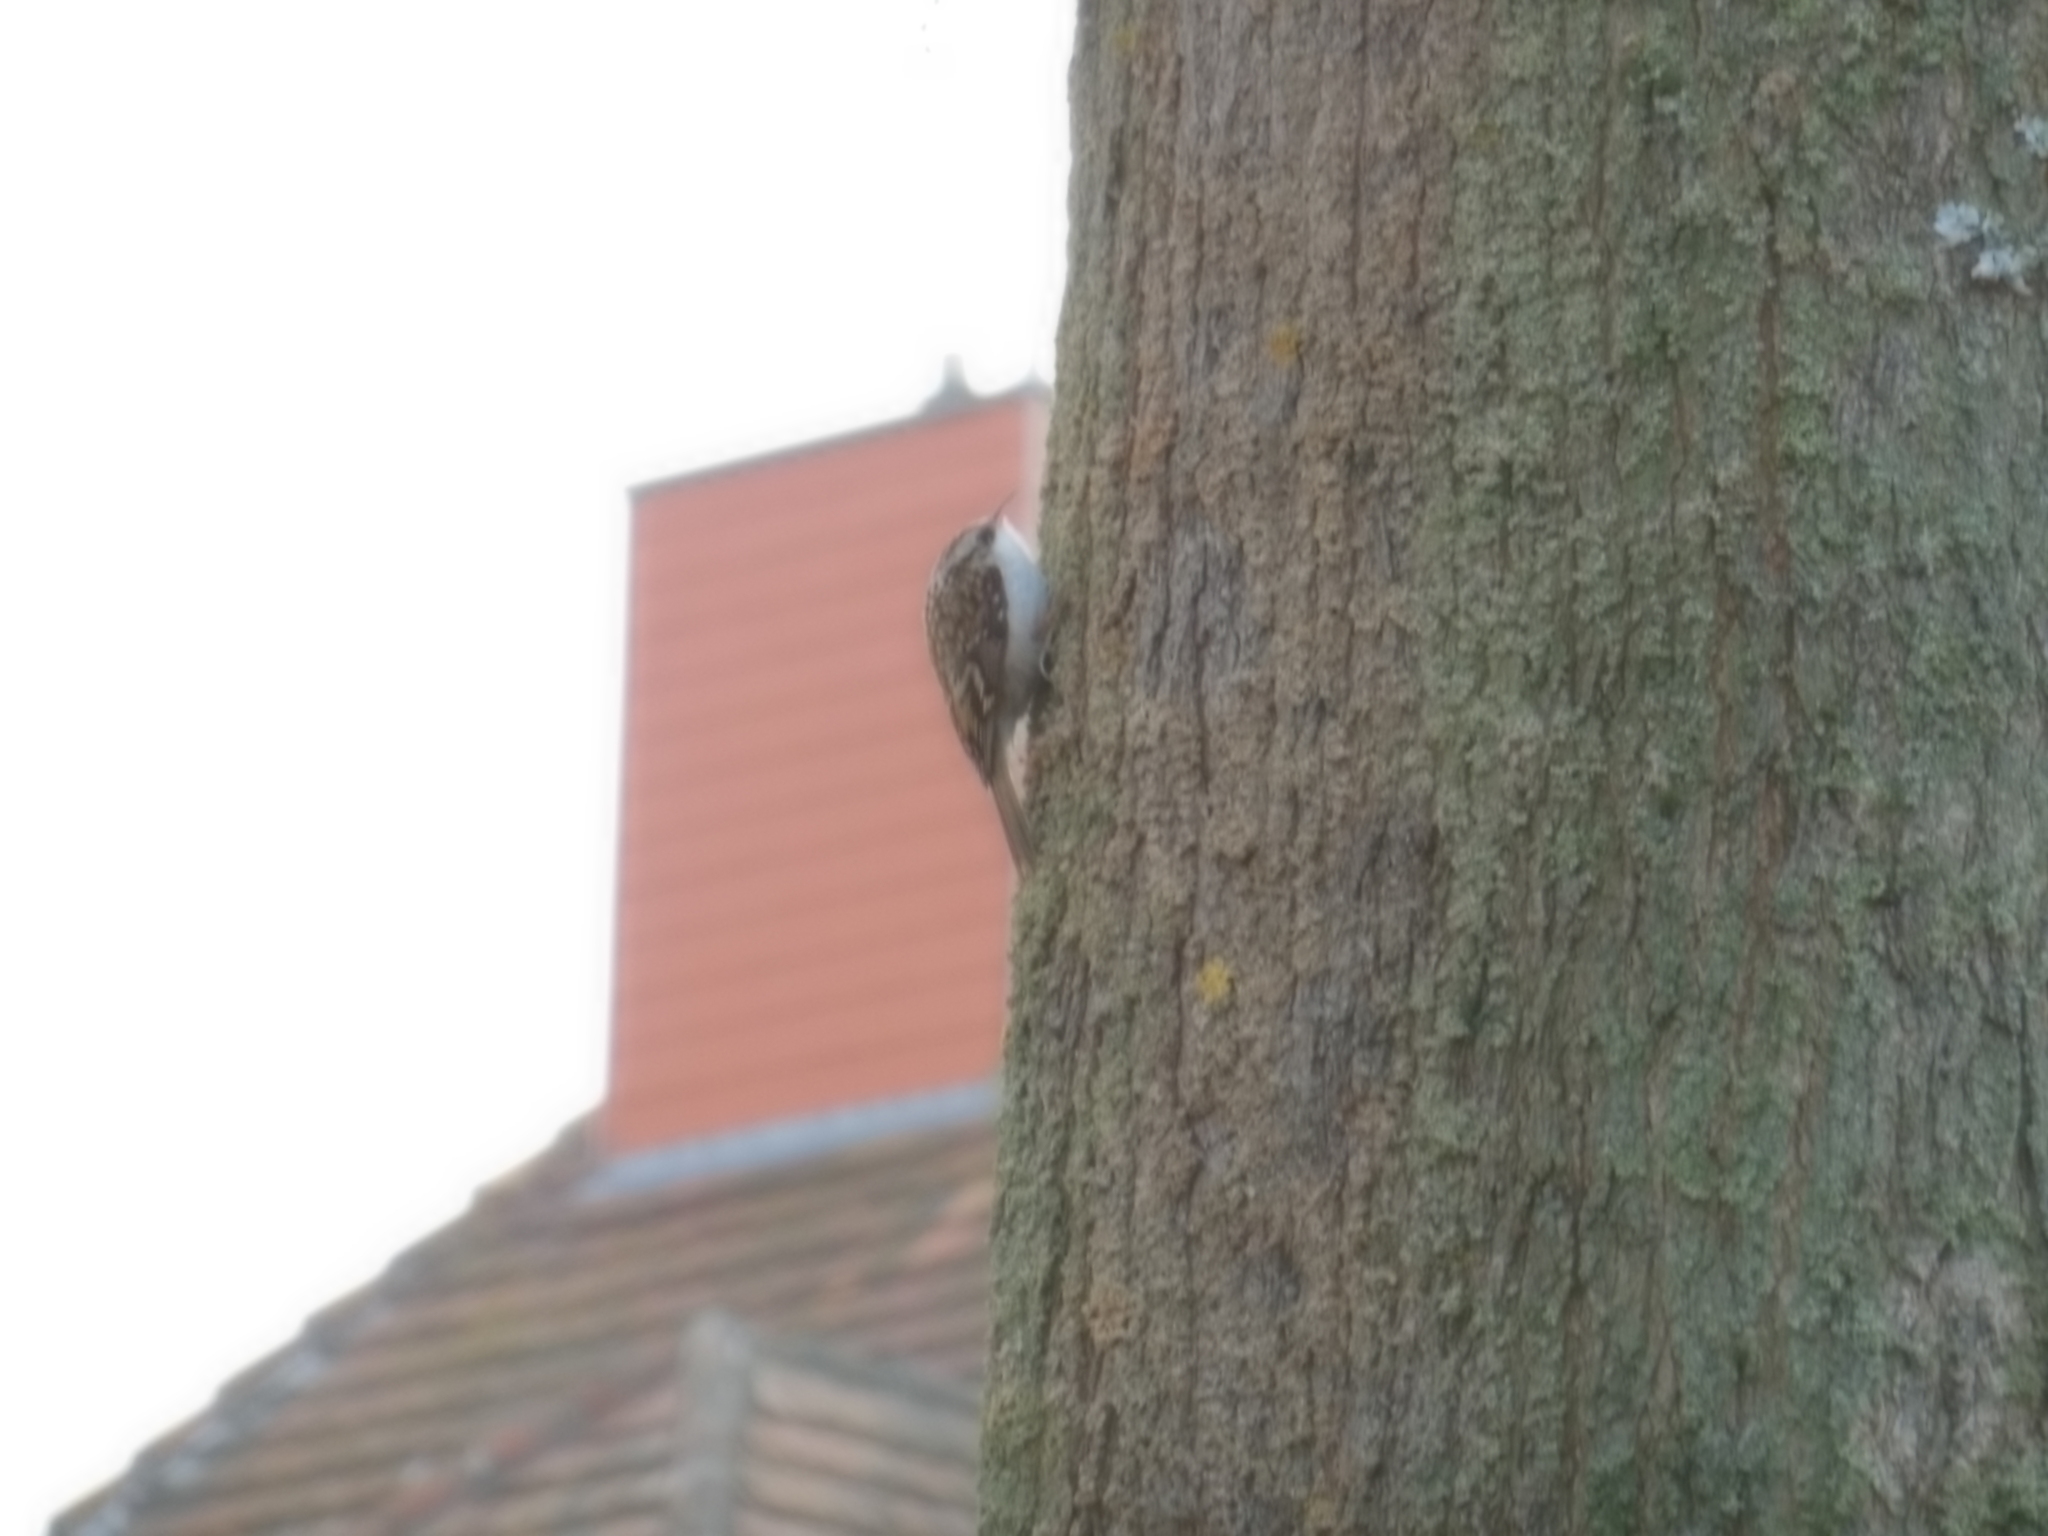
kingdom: Animalia
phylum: Chordata
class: Aves
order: Passeriformes
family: Certhiidae
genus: Certhia
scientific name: Certhia familiaris
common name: Eurasian treecreeper
